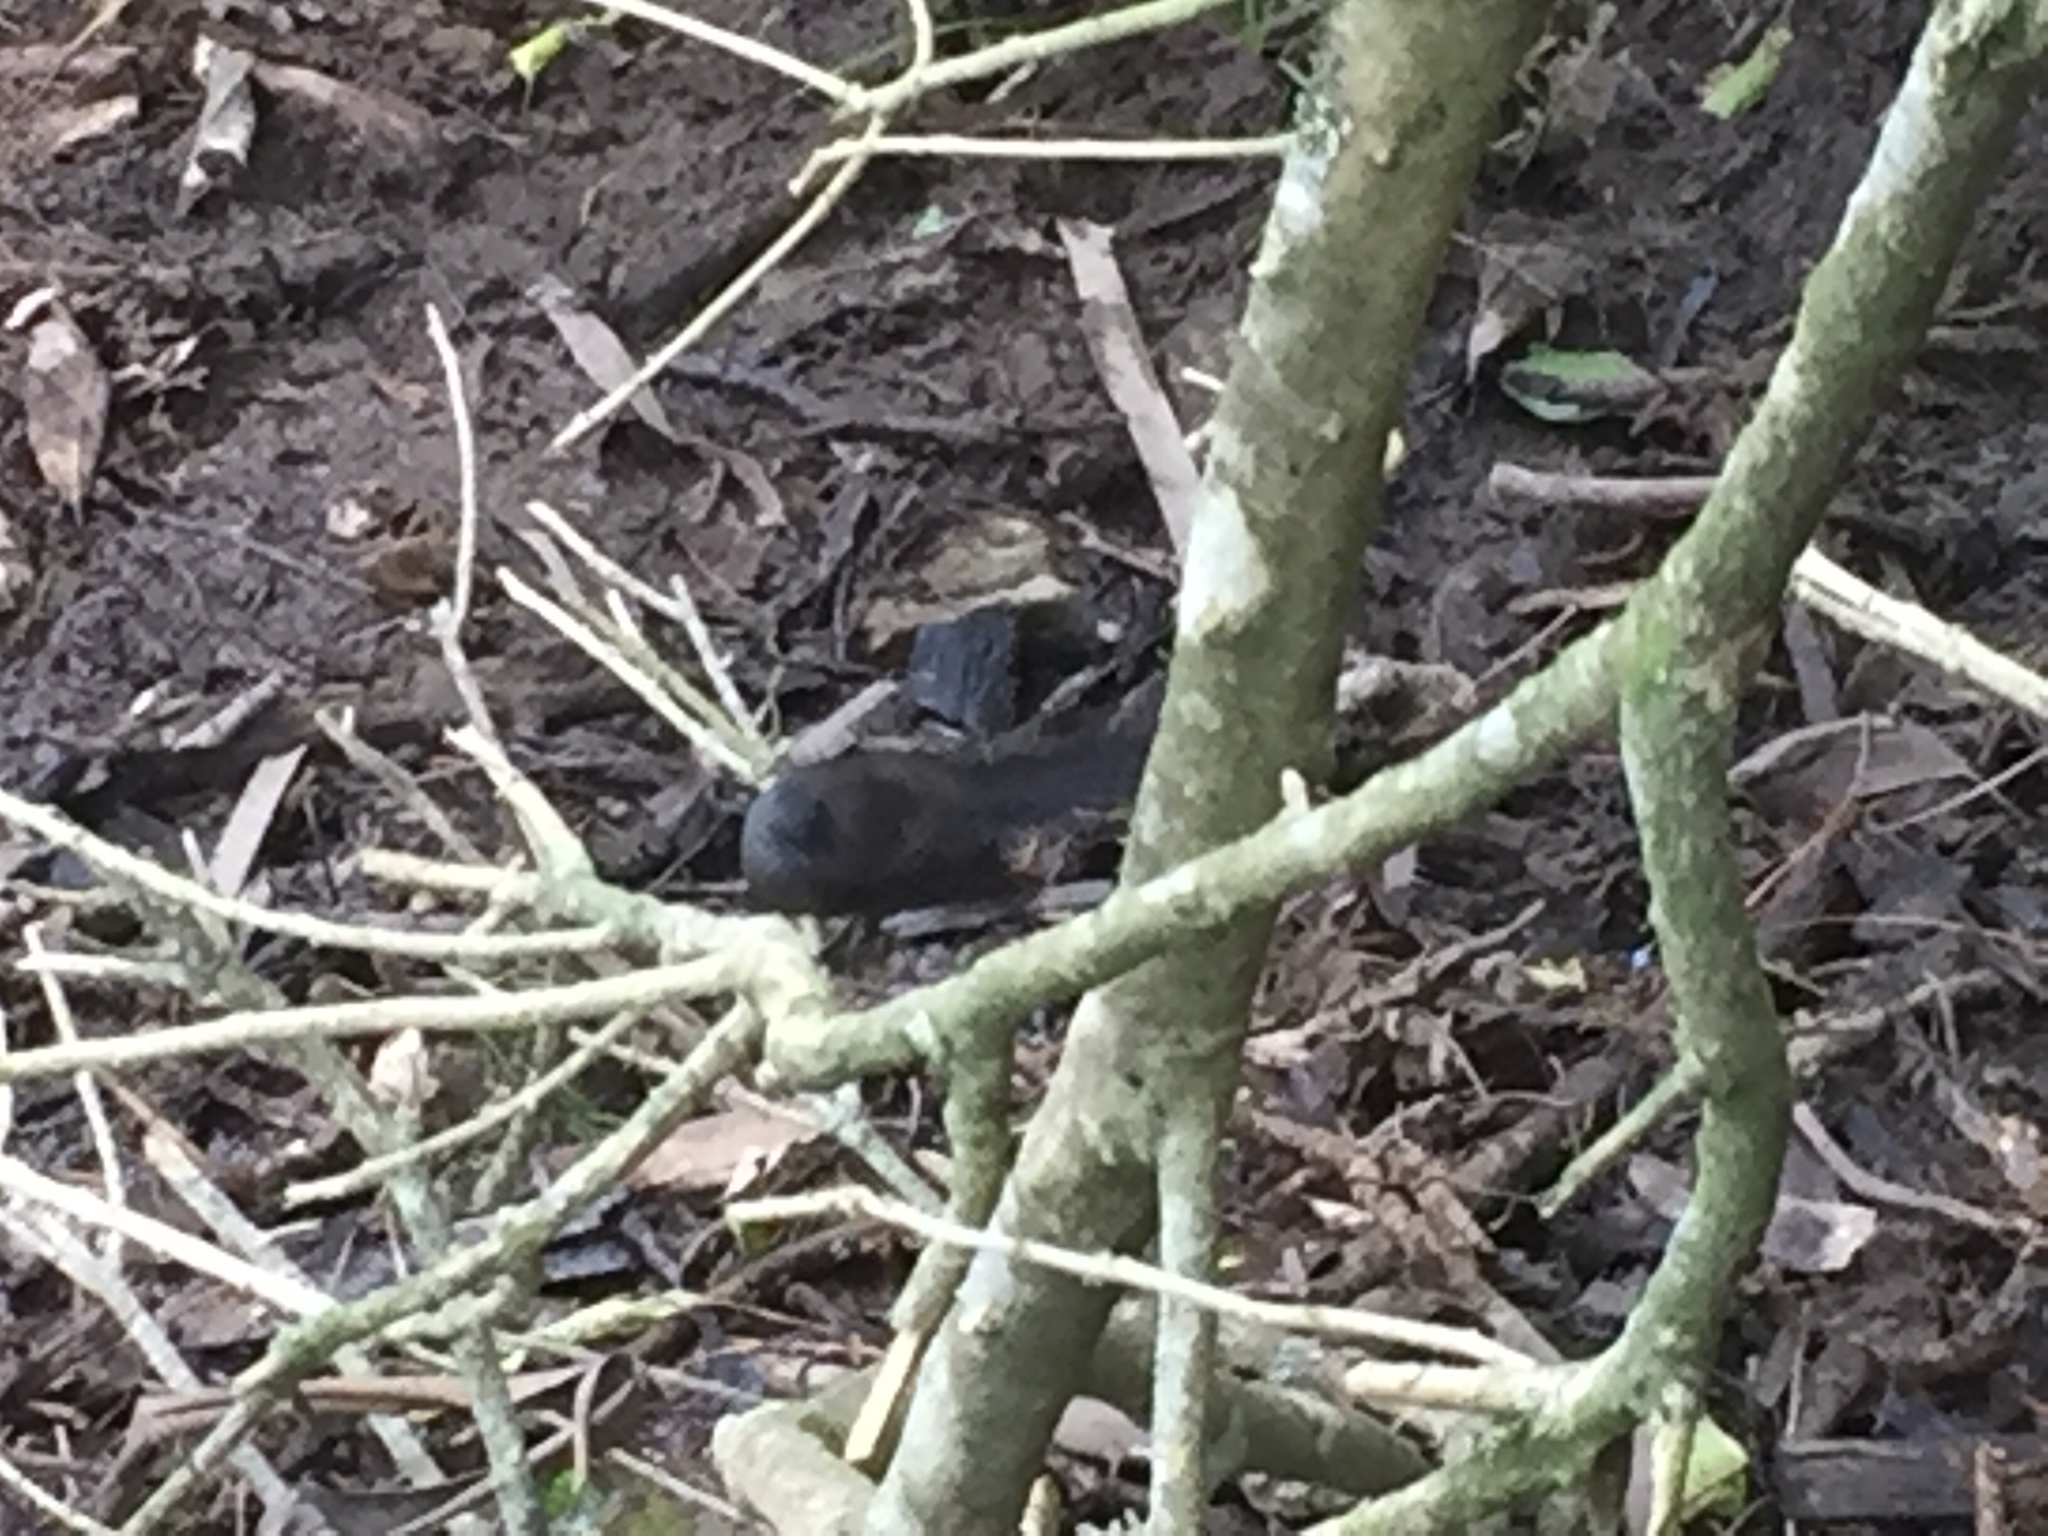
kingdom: Animalia
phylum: Chordata
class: Aves
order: Passeriformes
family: Rhipiduridae
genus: Rhipidura
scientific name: Rhipidura fuliginosa
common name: New zealand fantail
